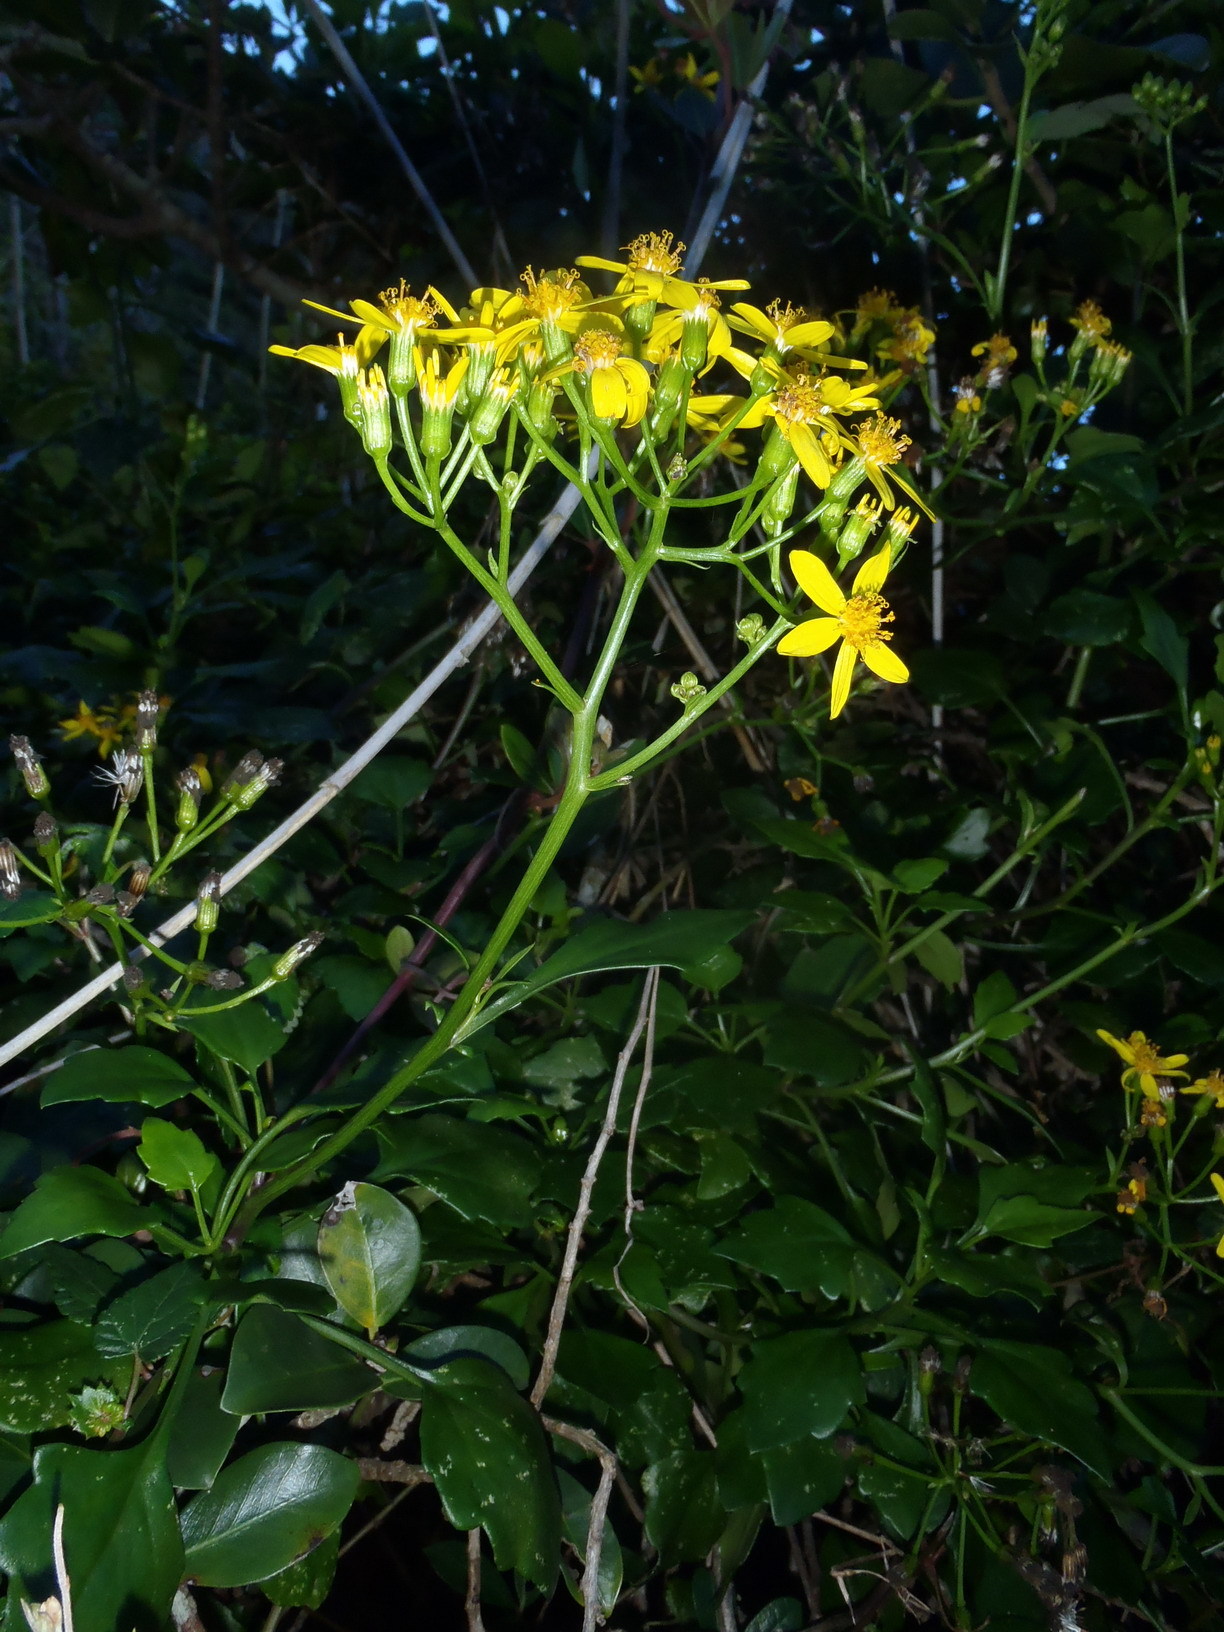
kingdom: Plantae
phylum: Tracheophyta
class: Magnoliopsida
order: Asterales
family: Asteraceae
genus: Senecio
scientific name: Senecio angulatus
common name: Climbing groundsel
